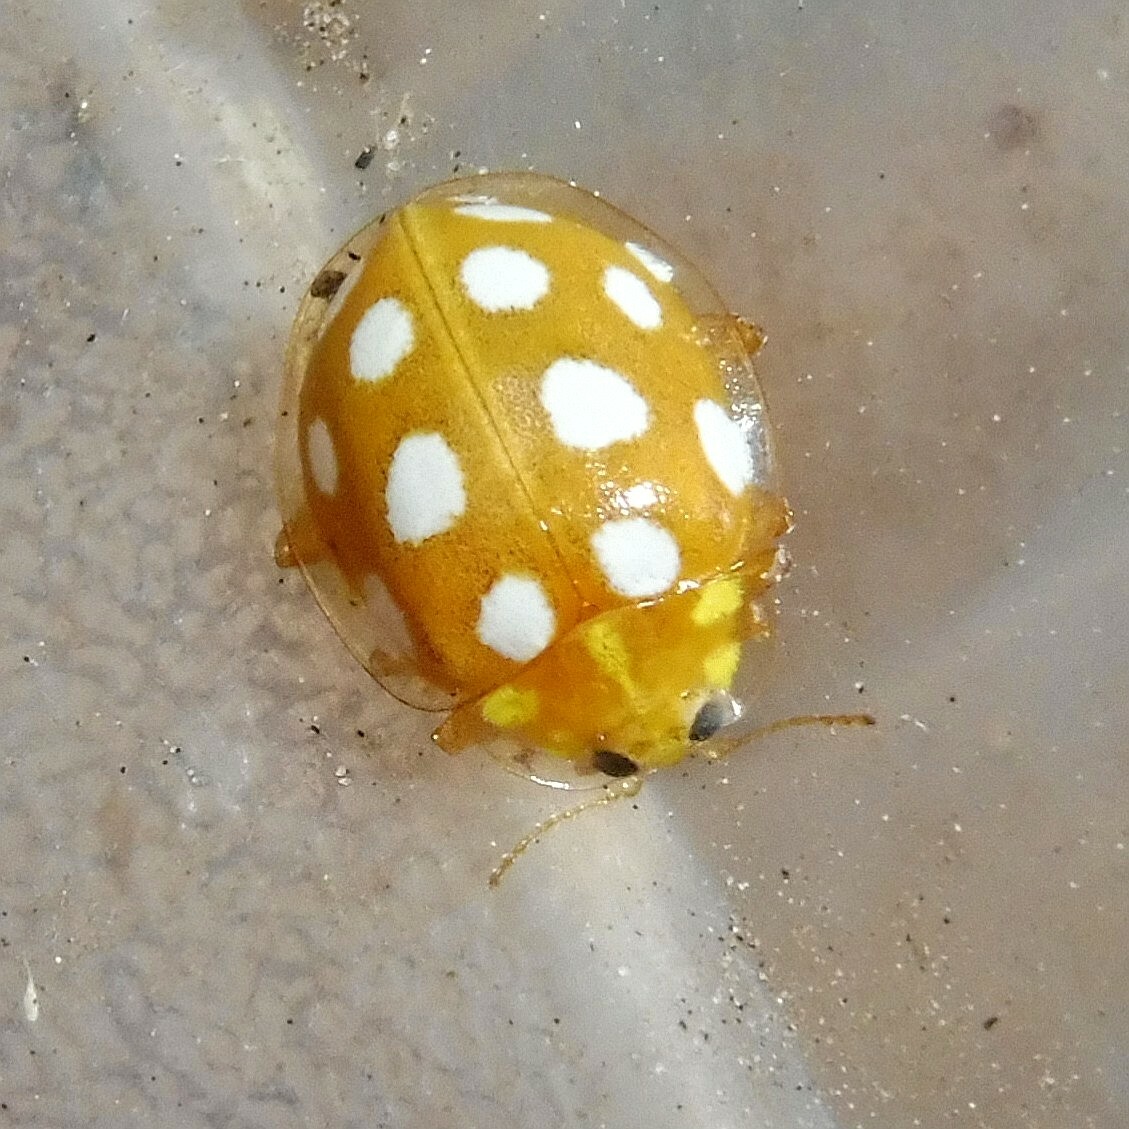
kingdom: Animalia
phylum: Arthropoda
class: Insecta
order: Coleoptera
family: Coccinellidae
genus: Halyzia
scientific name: Halyzia sedecimguttata
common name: Orange ladybird
